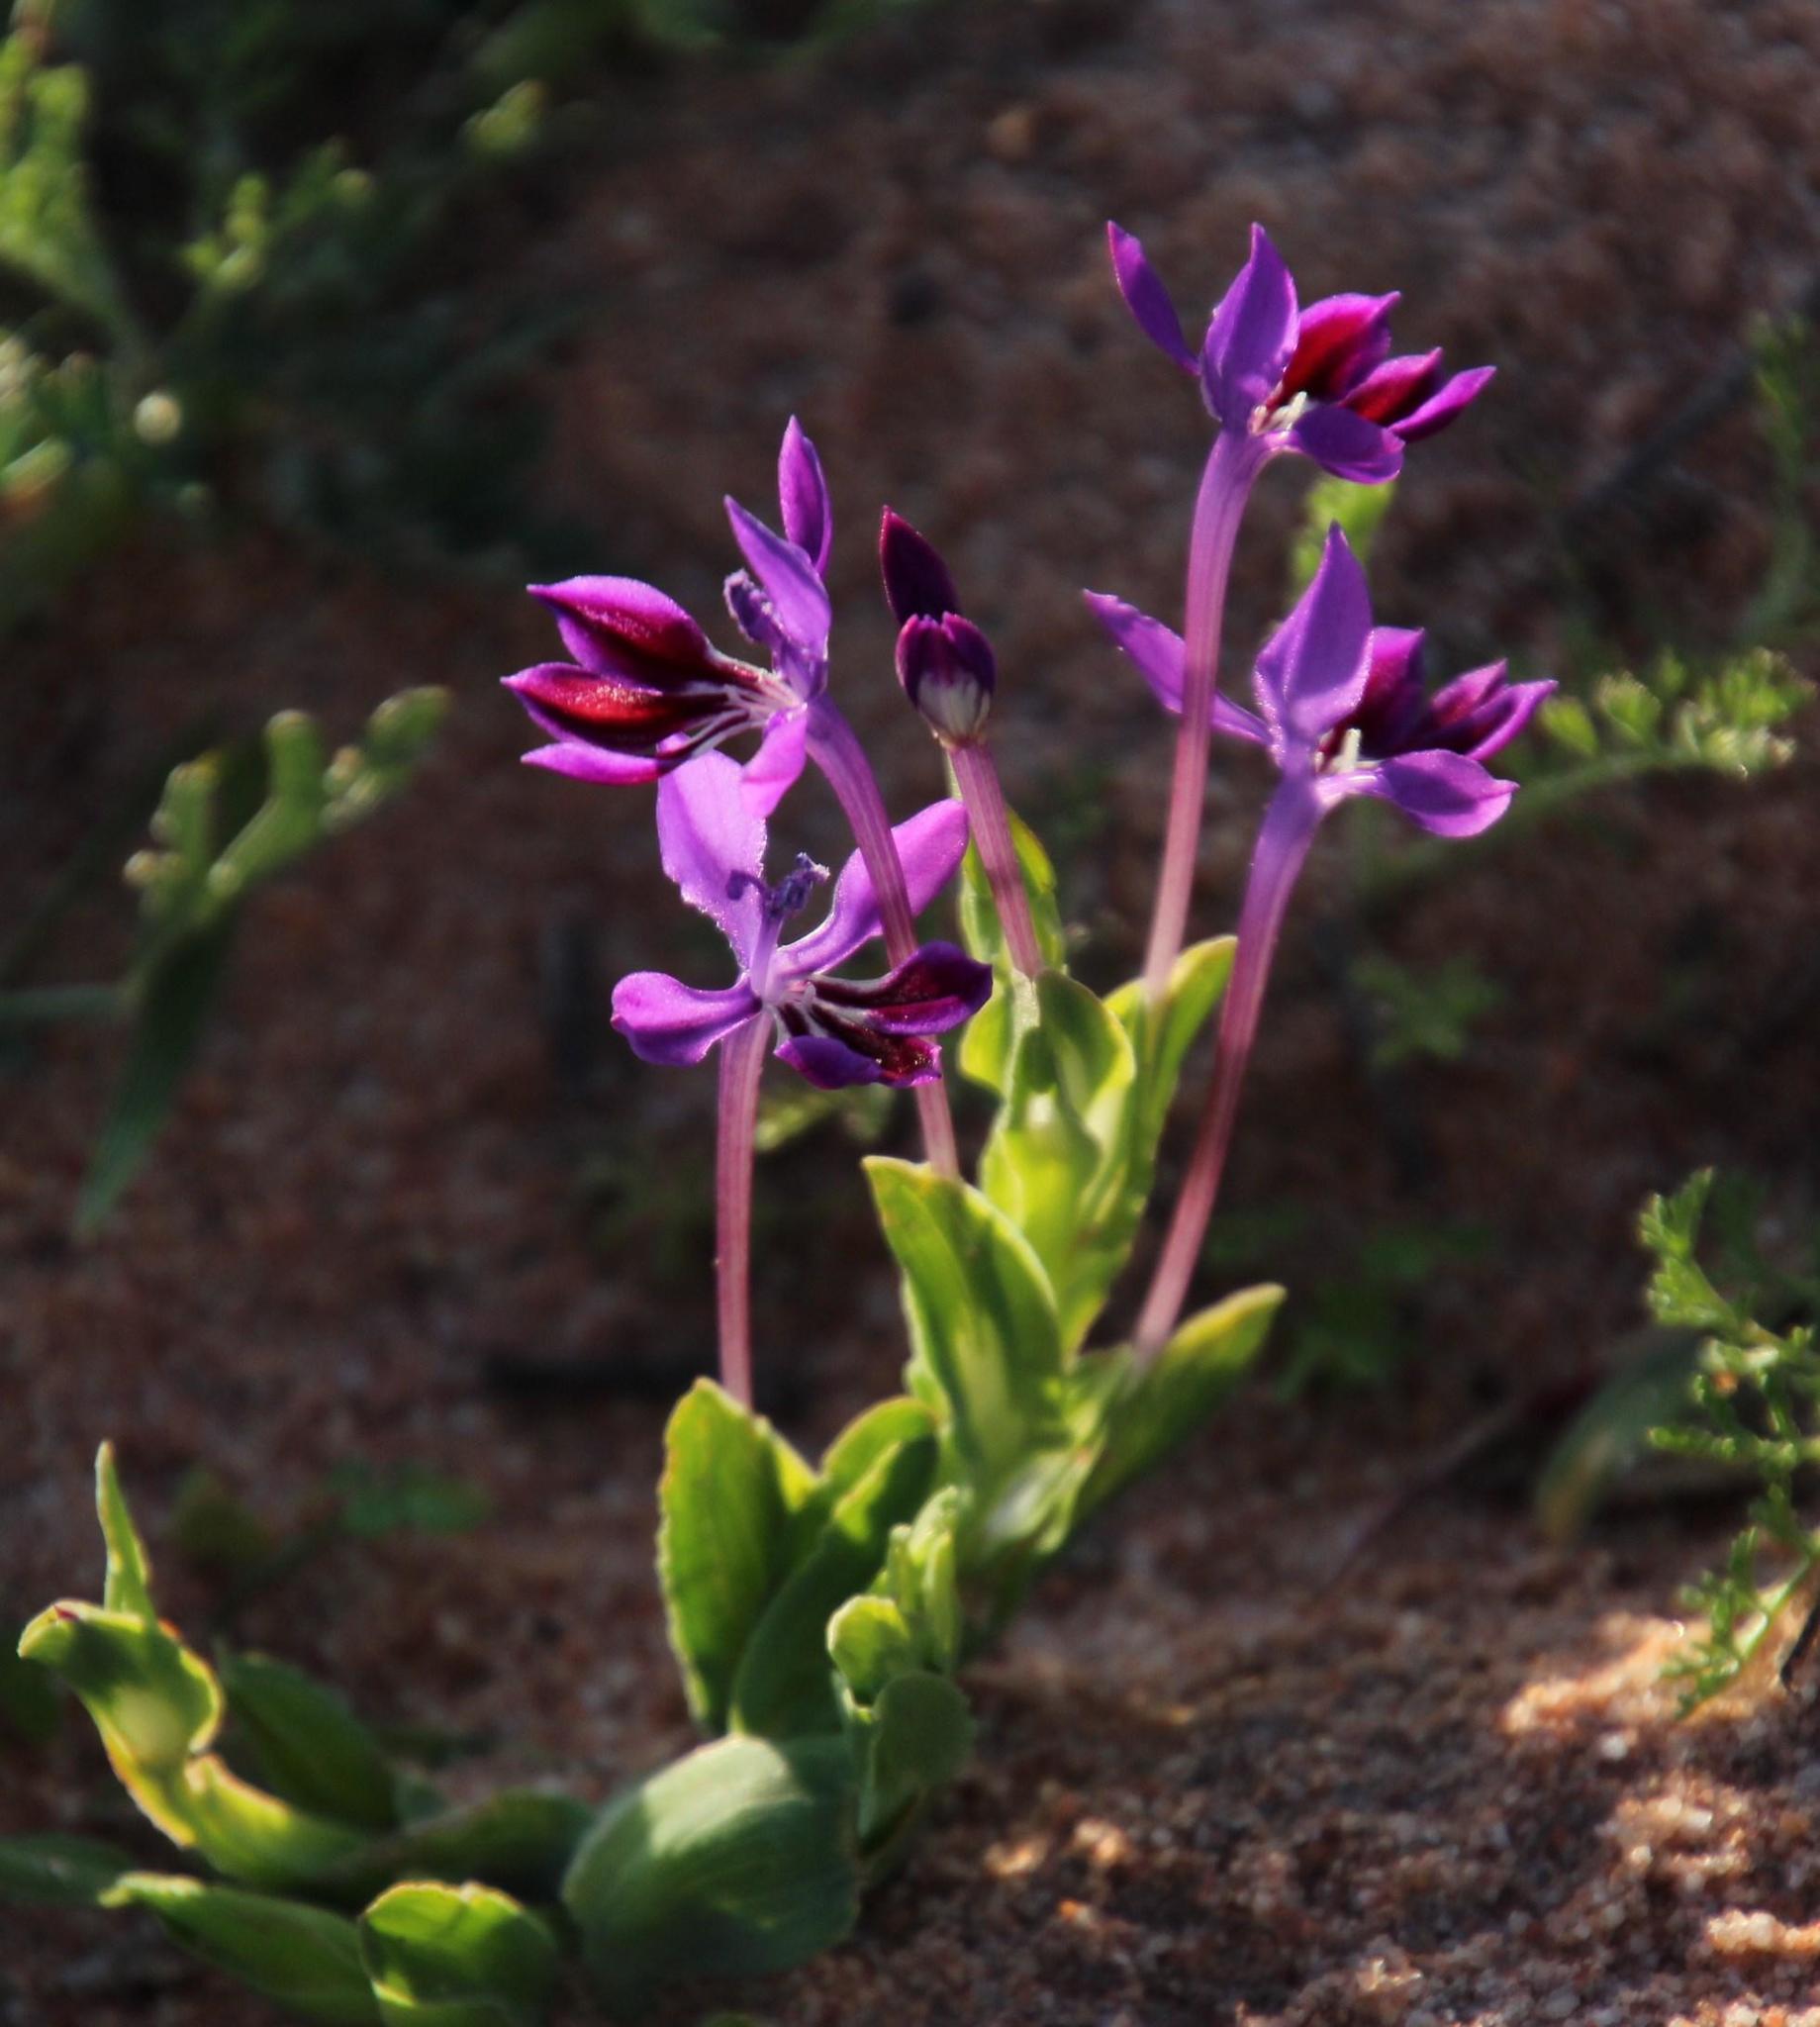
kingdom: Plantae
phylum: Tracheophyta
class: Liliopsida
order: Asparagales
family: Iridaceae
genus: Lapeirousia
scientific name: Lapeirousia jacquinii
